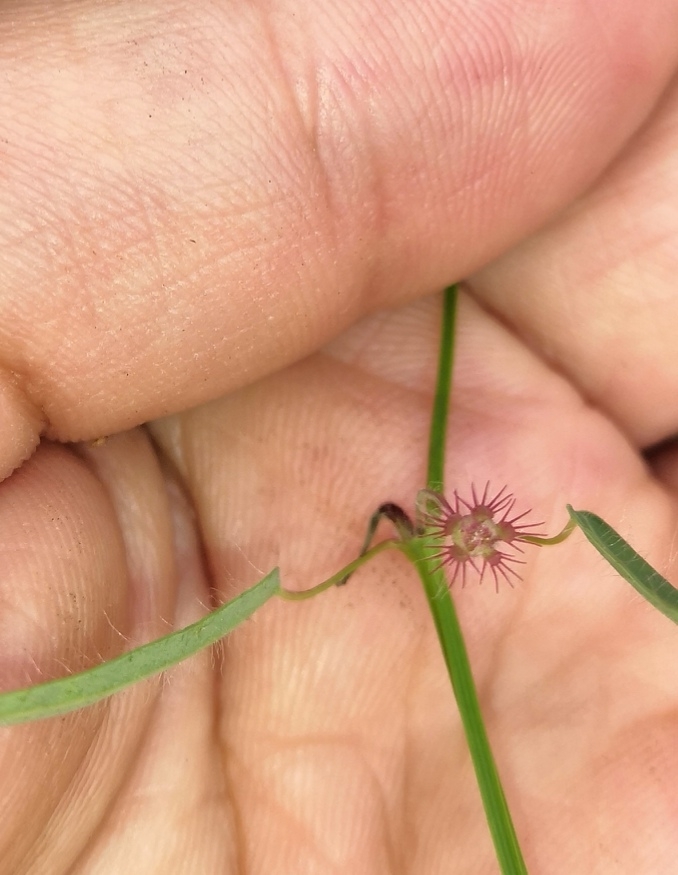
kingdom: Plantae
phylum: Tracheophyta
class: Magnoliopsida
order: Malpighiales
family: Euphorbiaceae
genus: Euphorbia
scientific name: Euphorbia guadalajarana
